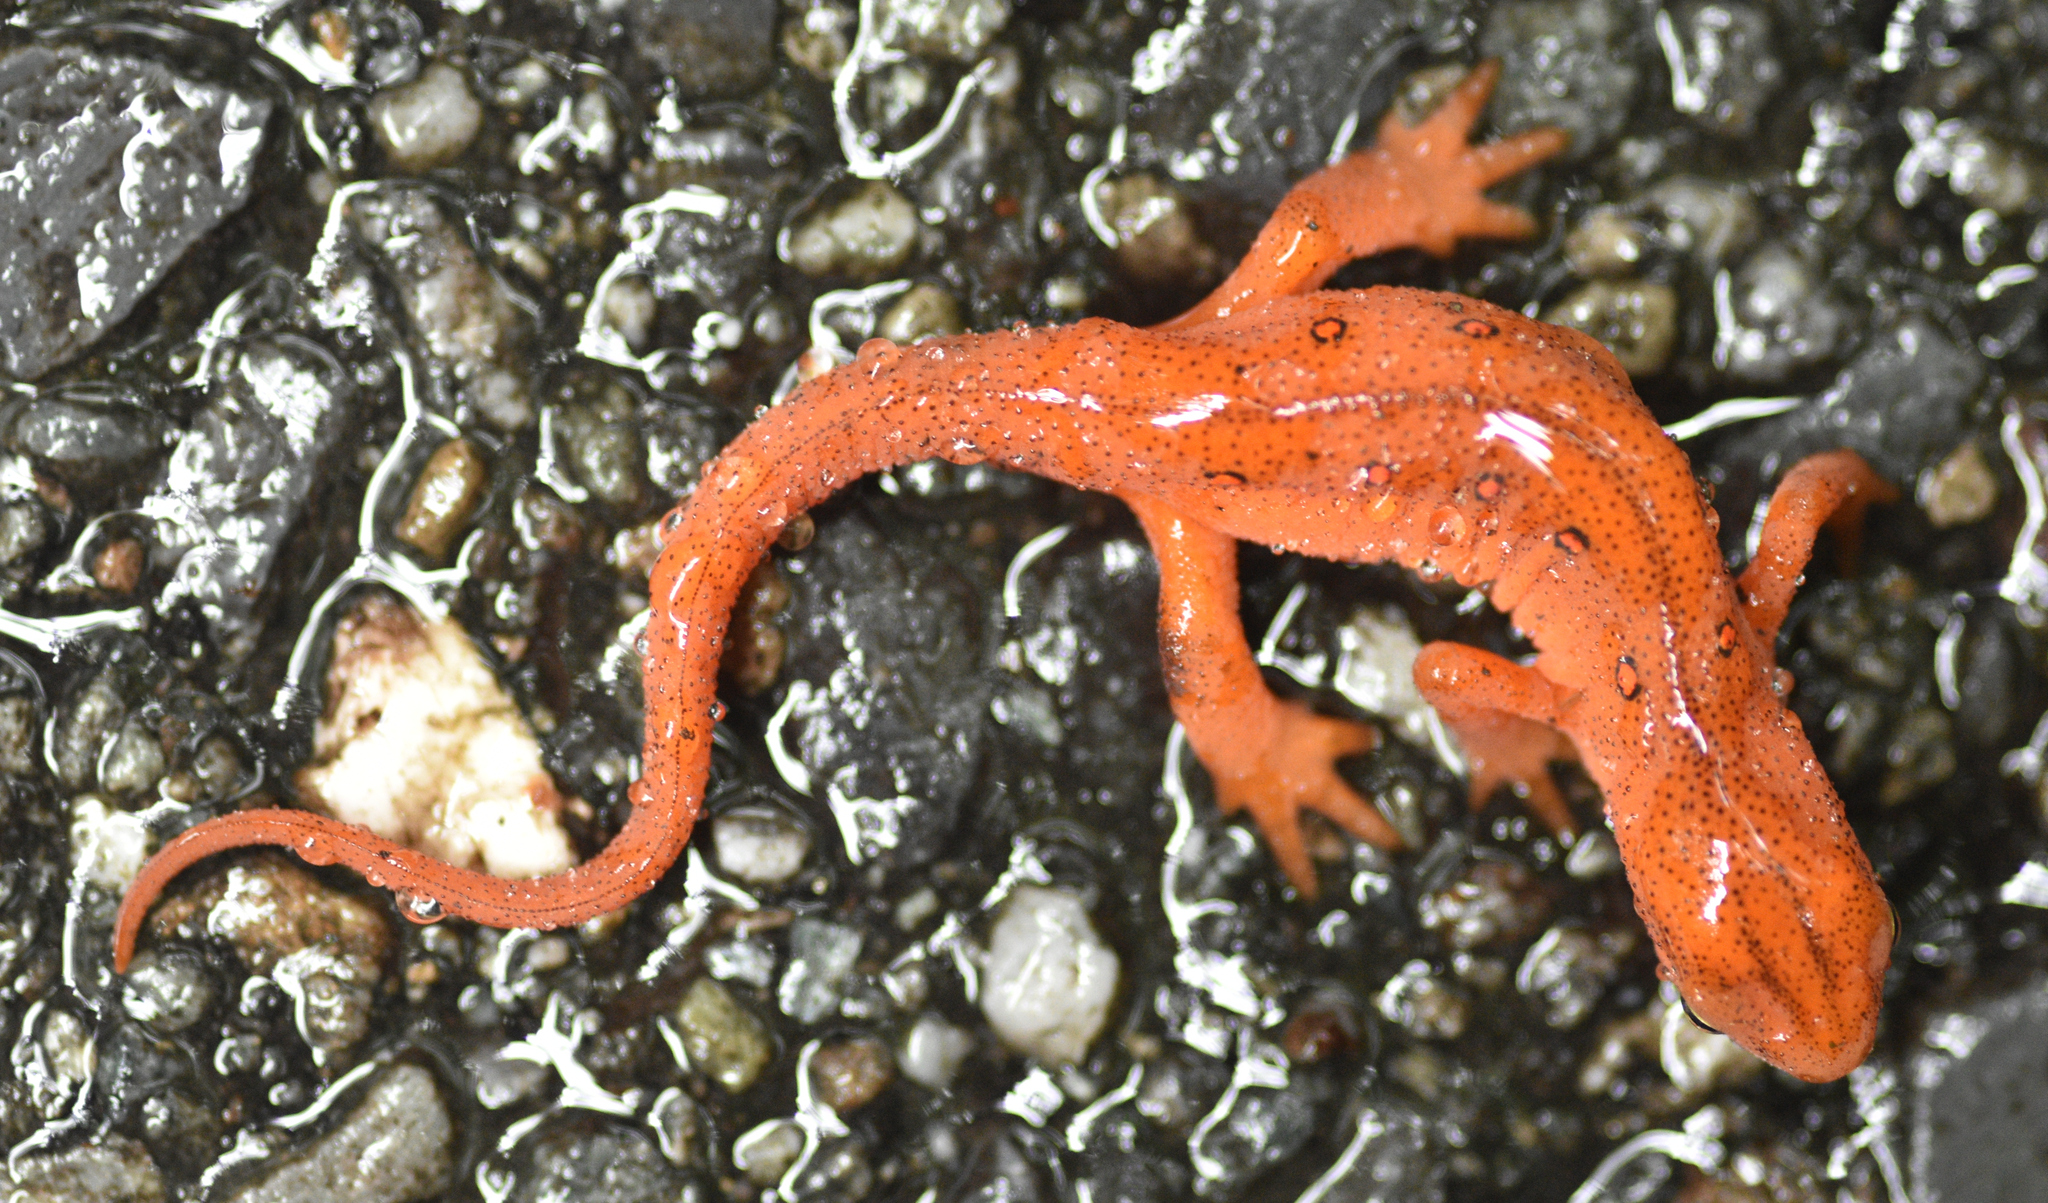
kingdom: Animalia
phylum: Chordata
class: Amphibia
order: Caudata
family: Salamandridae
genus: Notophthalmus
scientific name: Notophthalmus viridescens
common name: Eastern newt
